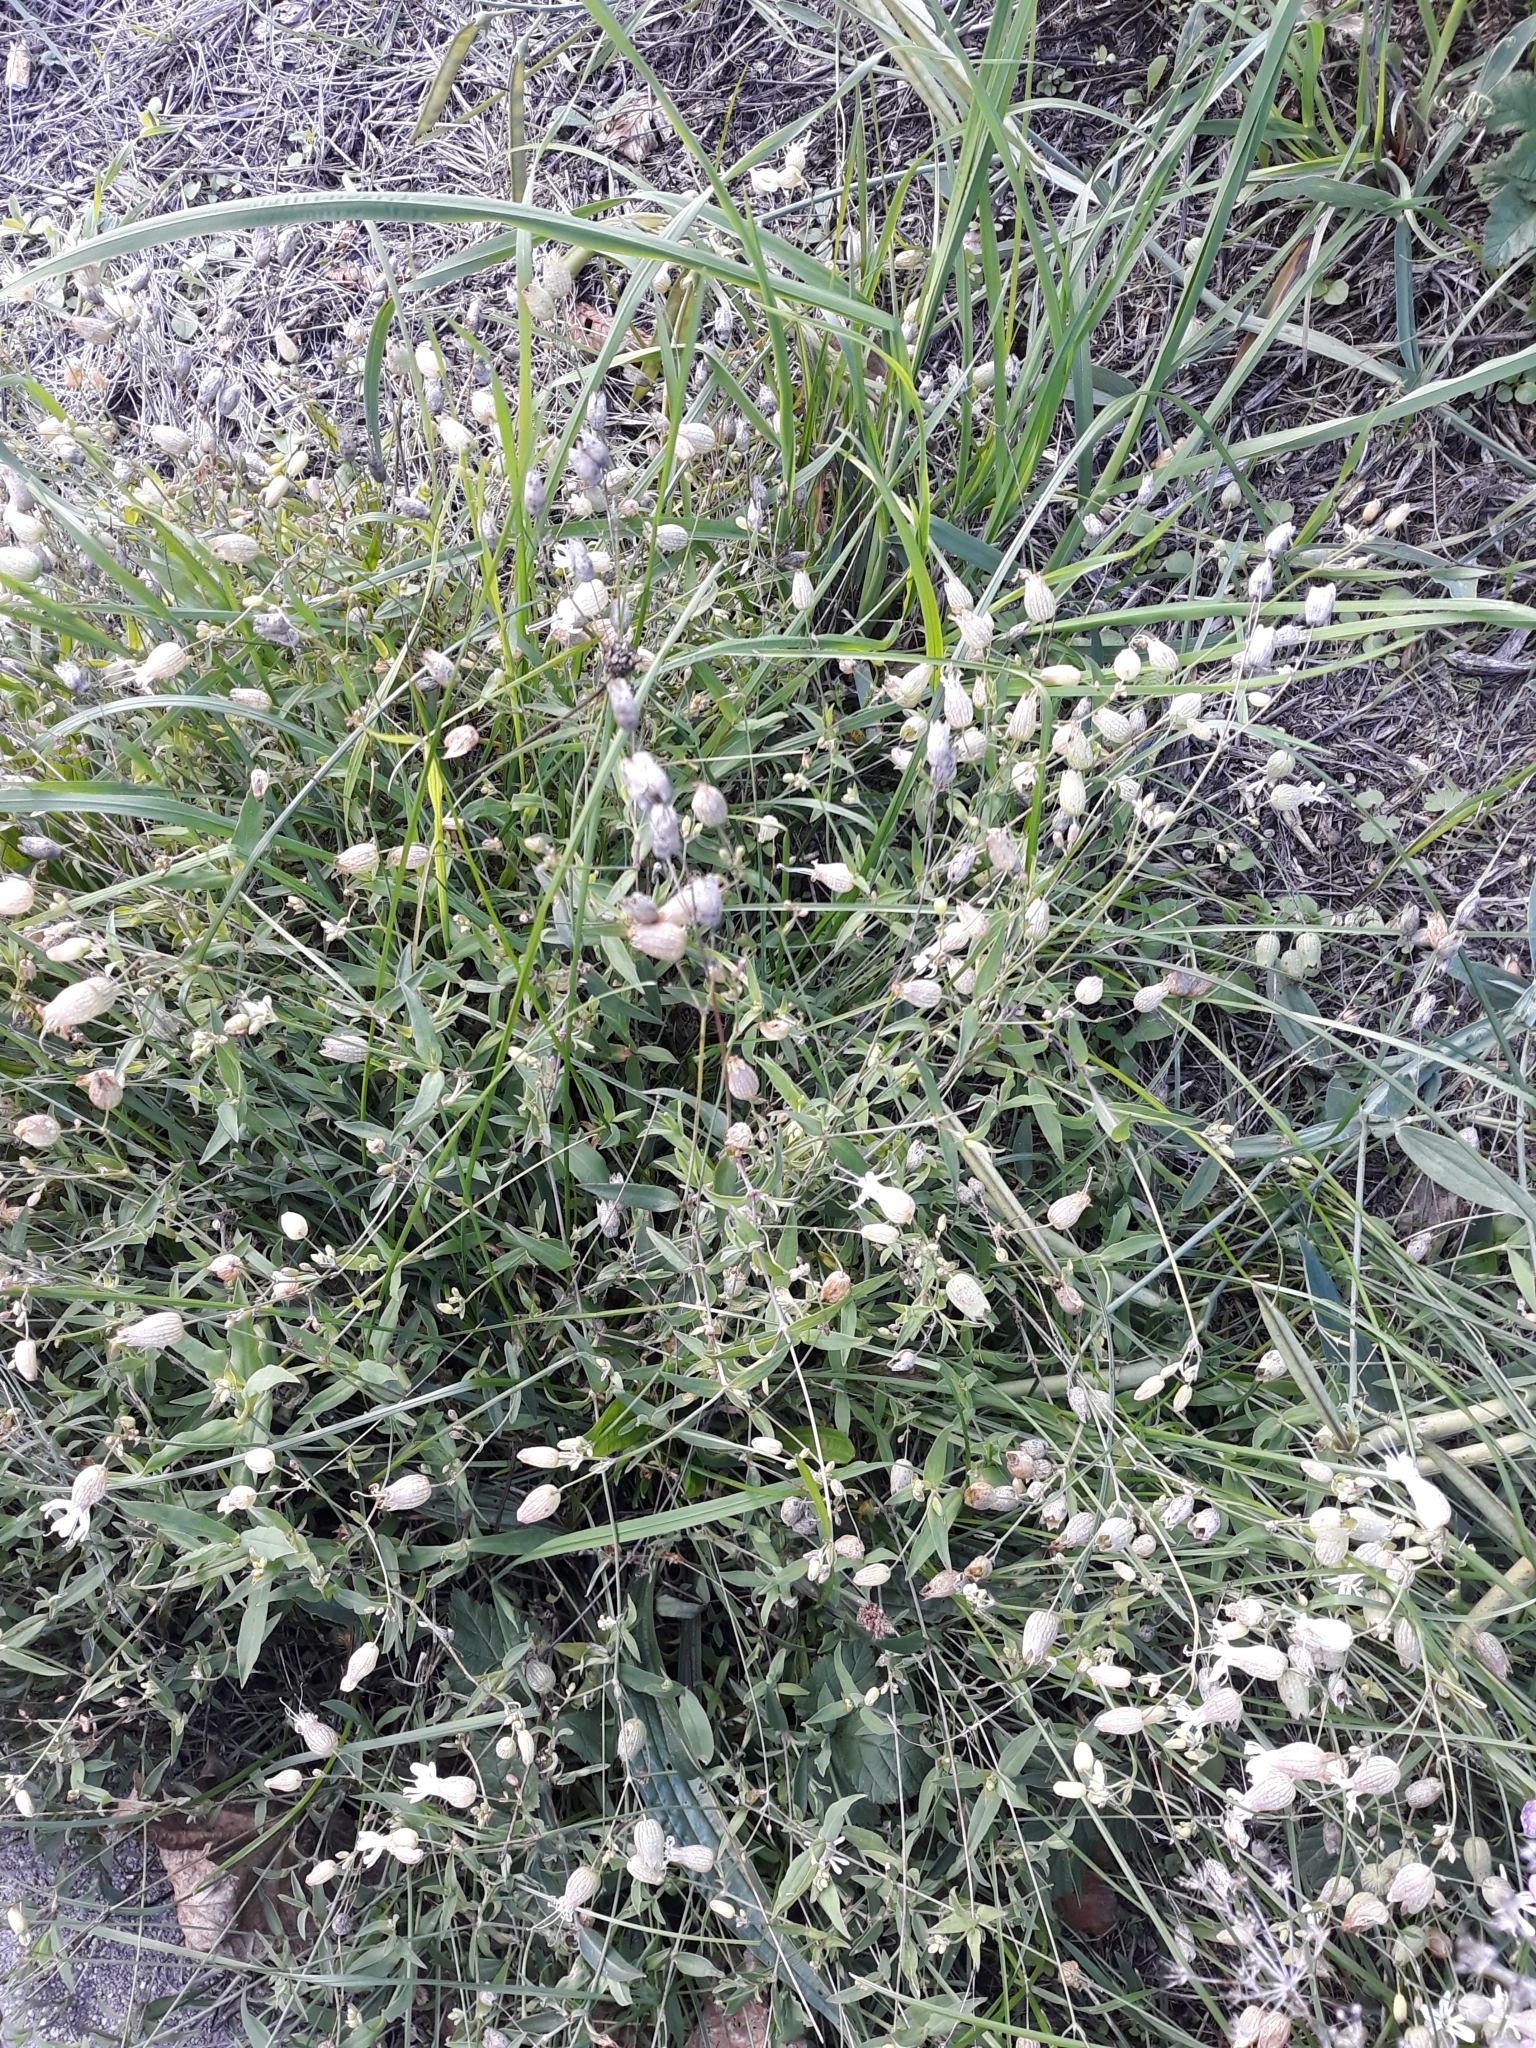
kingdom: Plantae
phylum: Tracheophyta
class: Magnoliopsida
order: Caryophyllales
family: Caryophyllaceae
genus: Silene
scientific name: Silene vulgaris
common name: Bladder campion
